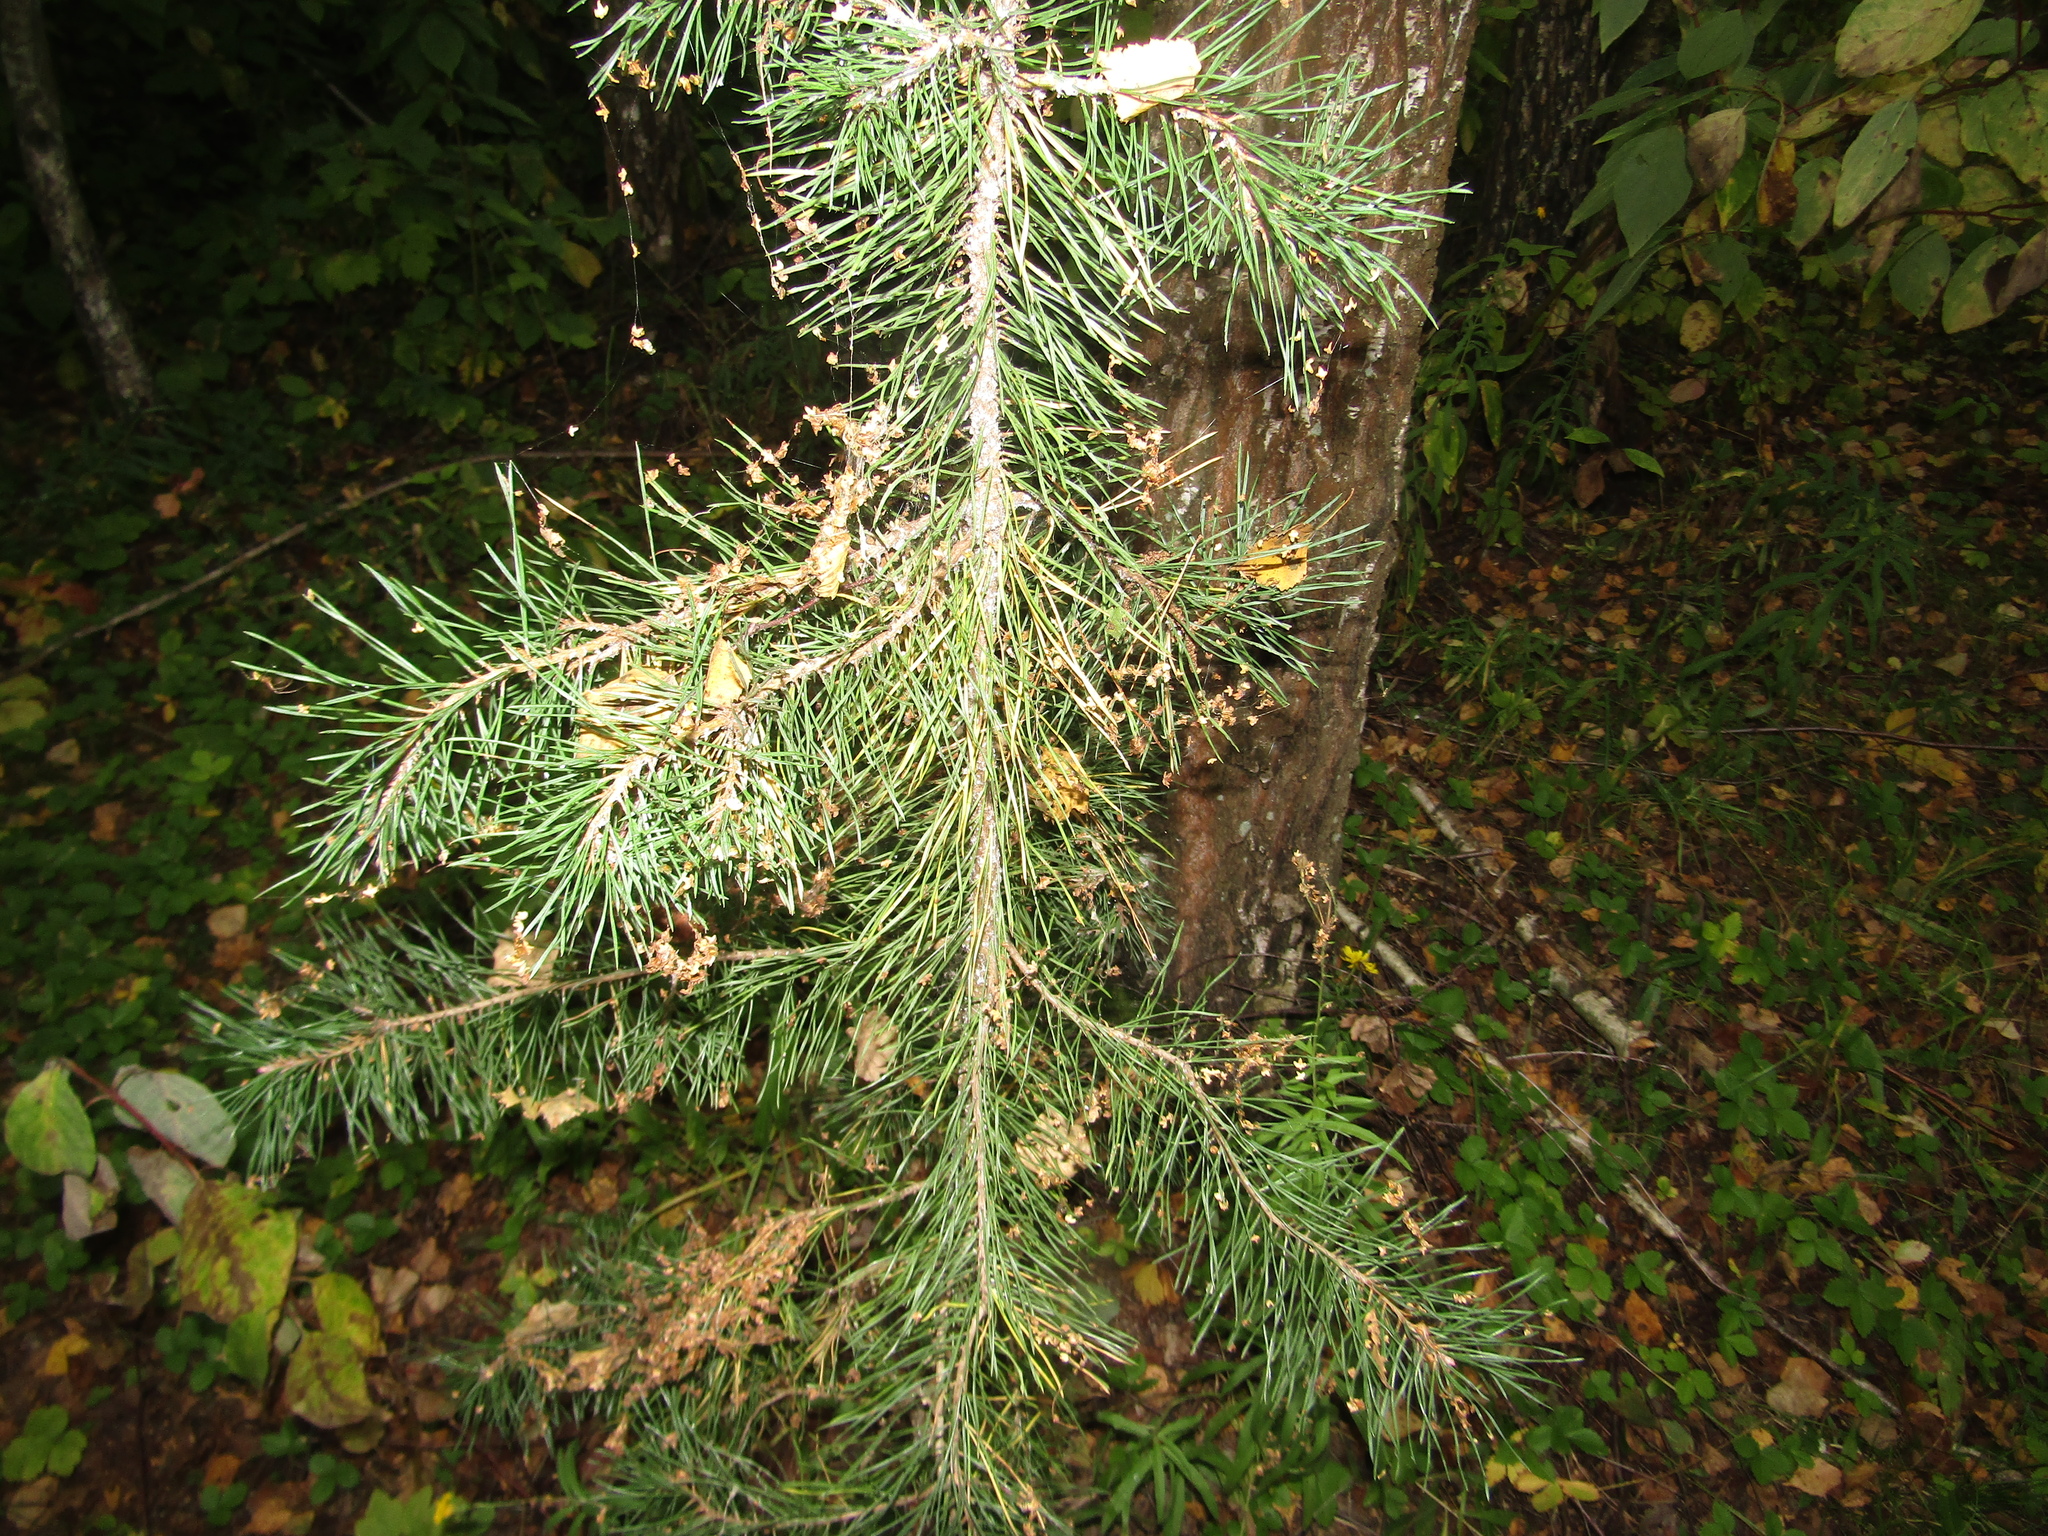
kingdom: Plantae
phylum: Tracheophyta
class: Pinopsida
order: Pinales
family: Pinaceae
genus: Pinus
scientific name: Pinus sylvestris
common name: Scots pine
